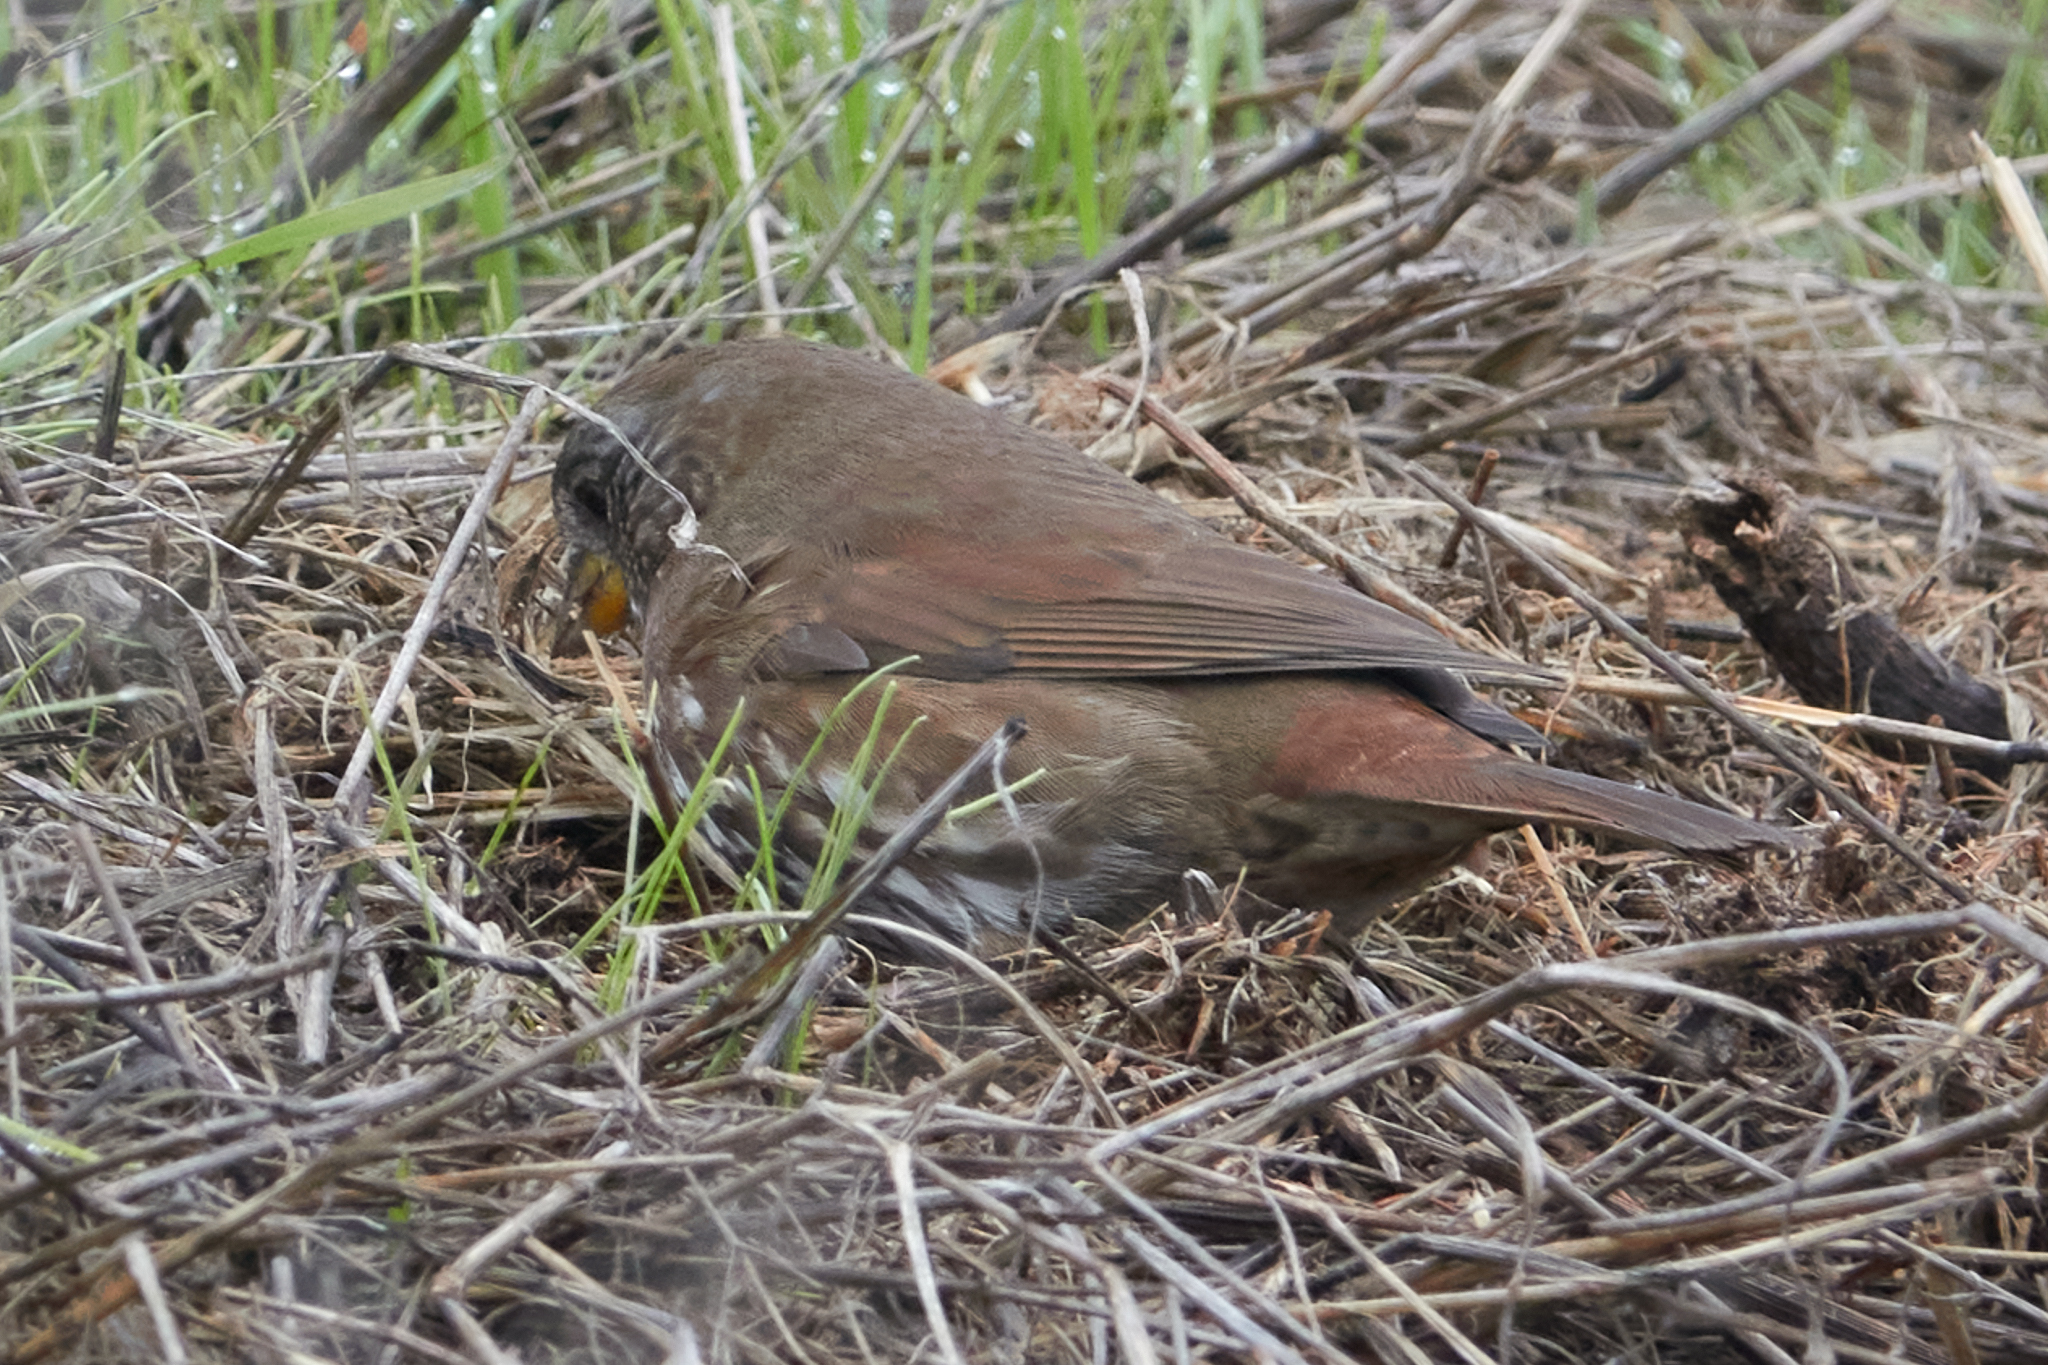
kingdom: Animalia
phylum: Chordata
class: Aves
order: Passeriformes
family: Passerellidae
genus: Passerella
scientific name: Passerella iliaca
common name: Fox sparrow
